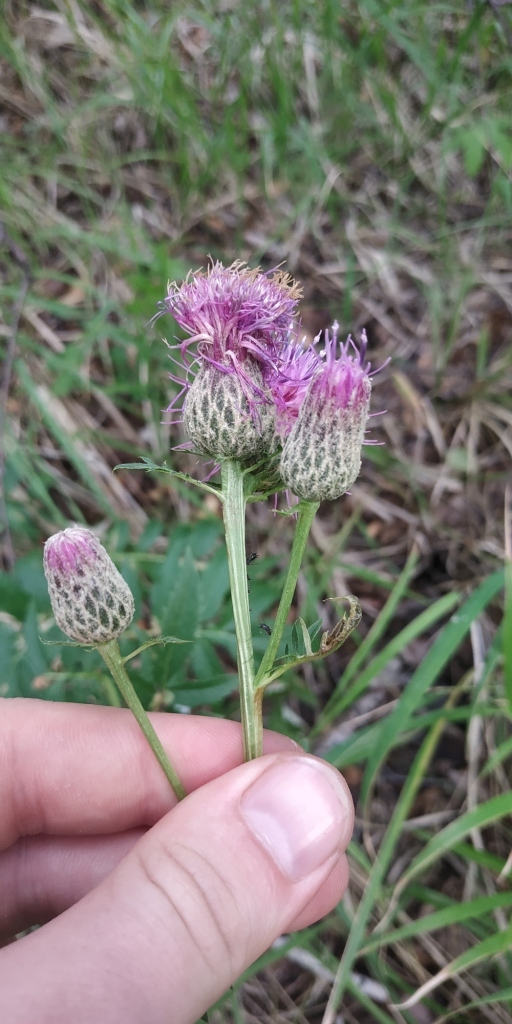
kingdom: Plantae
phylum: Tracheophyta
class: Magnoliopsida
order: Asterales
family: Asteraceae
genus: Serratula
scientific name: Serratula coronata
